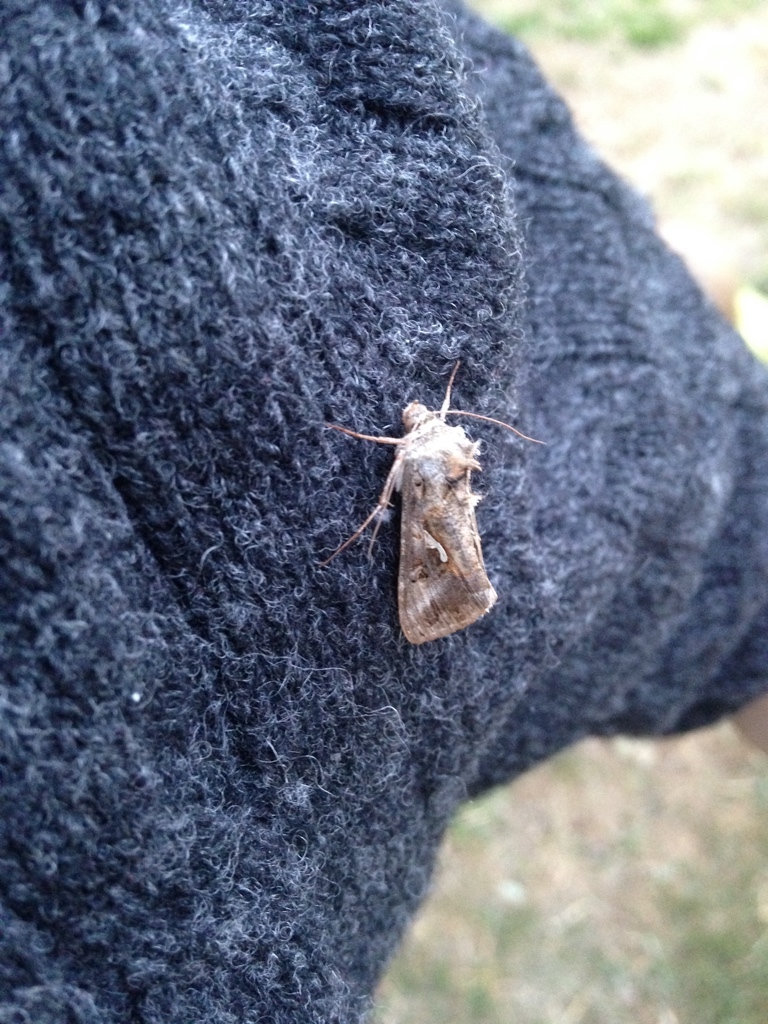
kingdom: Animalia
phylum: Arthropoda
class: Insecta
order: Lepidoptera
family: Noctuidae
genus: Autographa
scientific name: Autographa gamma
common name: Silver y
